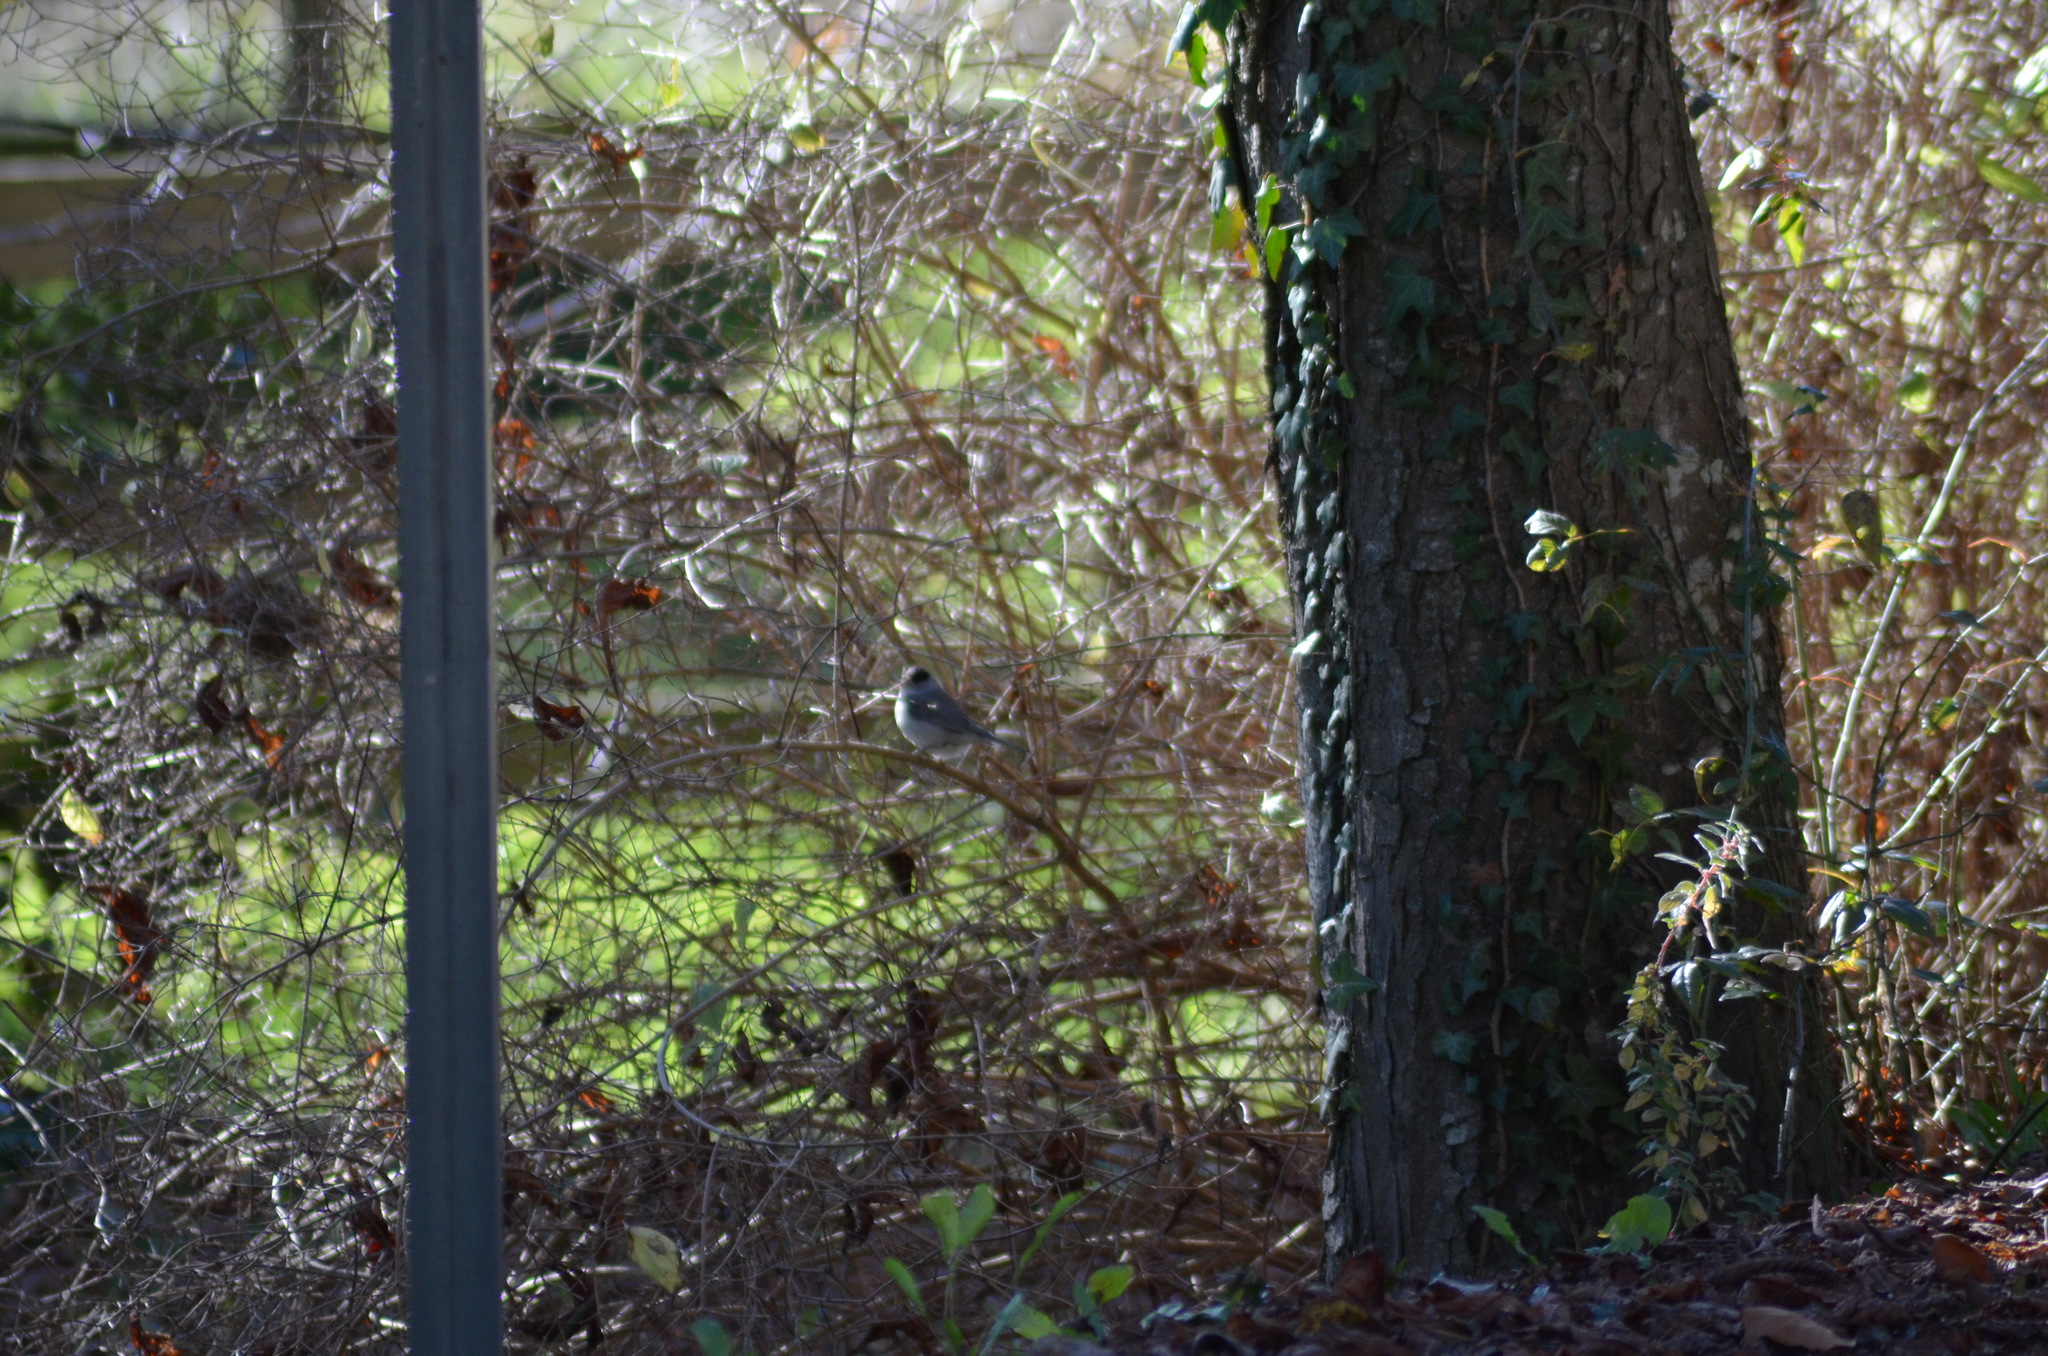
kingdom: Animalia
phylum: Chordata
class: Aves
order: Passeriformes
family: Sylviidae
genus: Sylvia
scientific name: Sylvia atricapilla
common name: Eurasian blackcap
